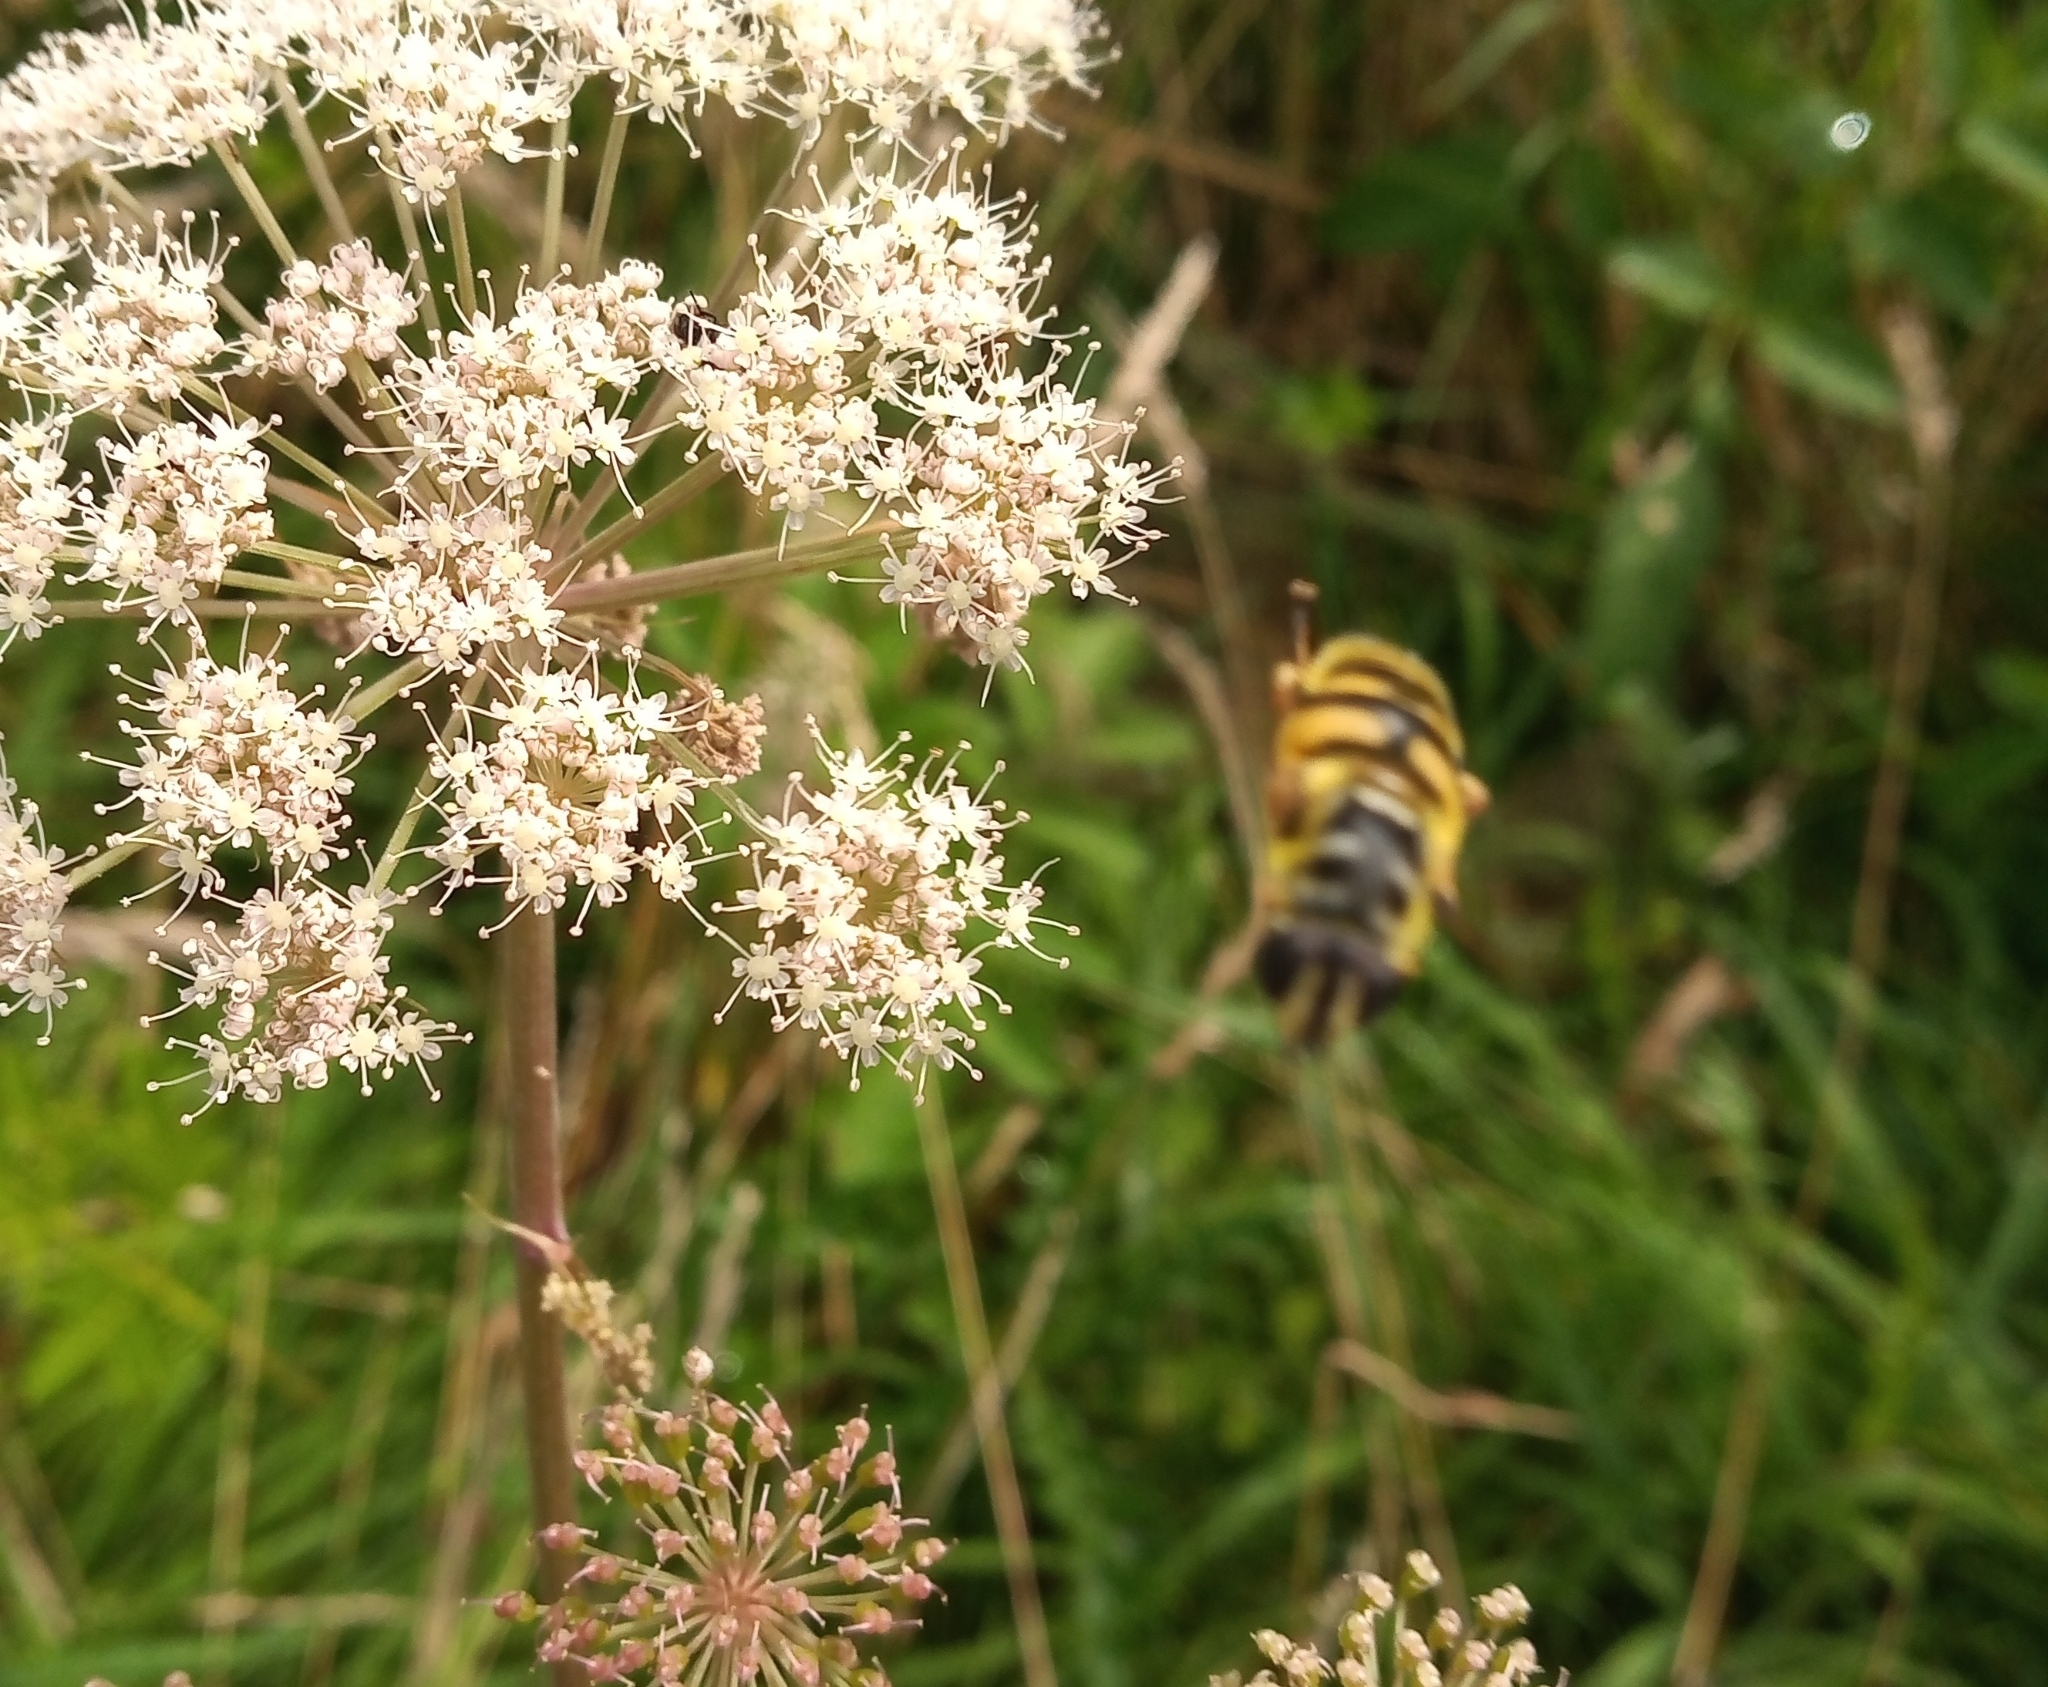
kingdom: Animalia
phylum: Arthropoda
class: Insecta
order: Diptera
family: Syrphidae
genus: Myathropa
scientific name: Myathropa florea
